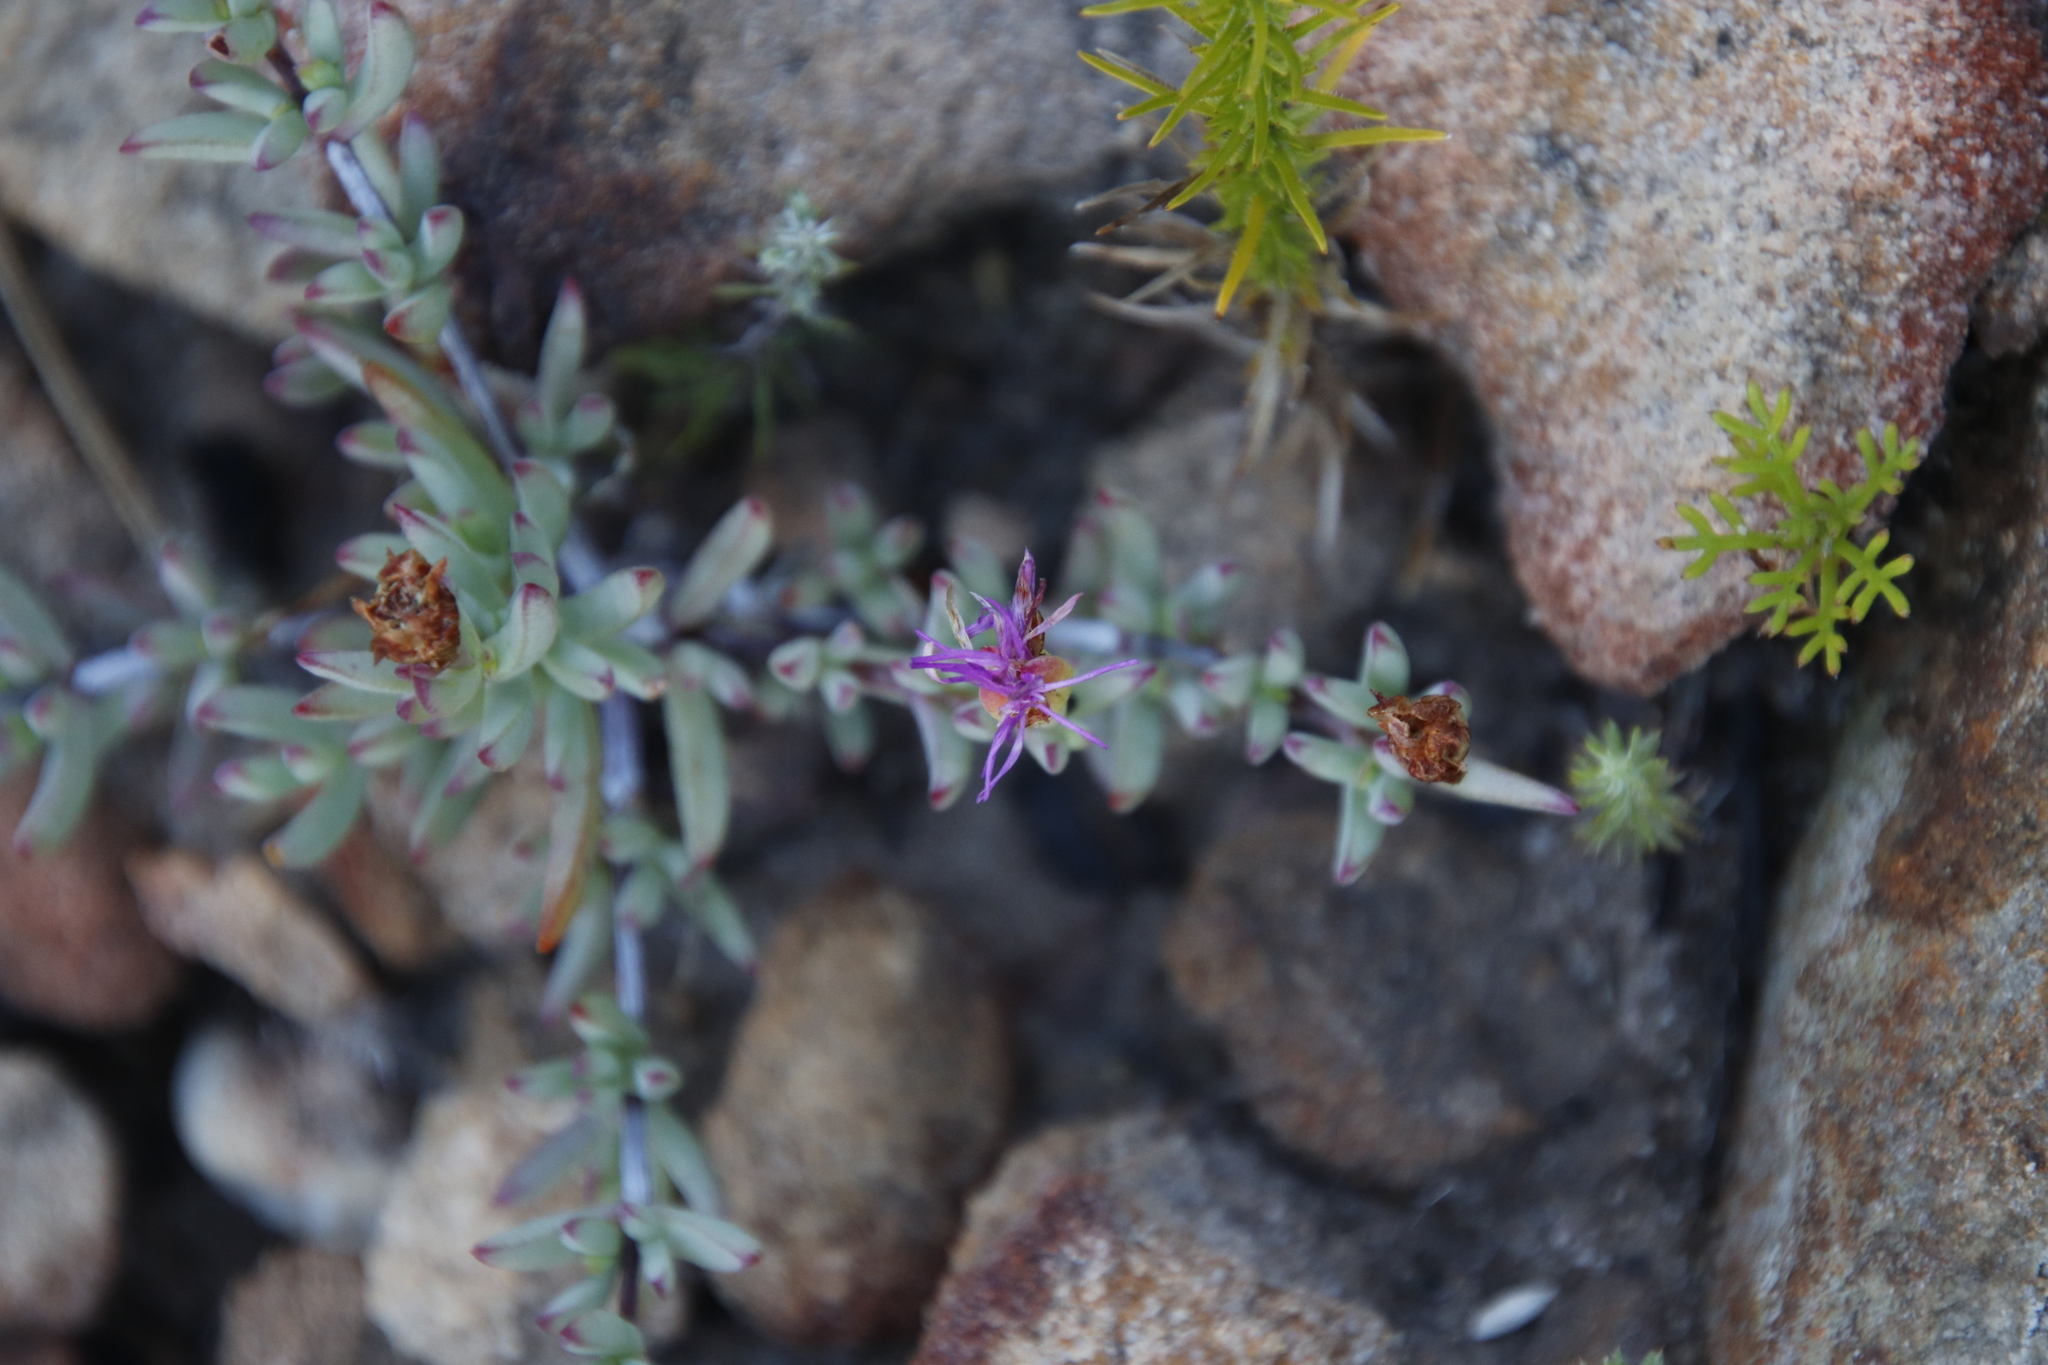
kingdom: Plantae
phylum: Tracheophyta
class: Magnoliopsida
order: Caryophyllales
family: Aizoaceae
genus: Lampranthus
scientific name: Lampranthus falcatus
